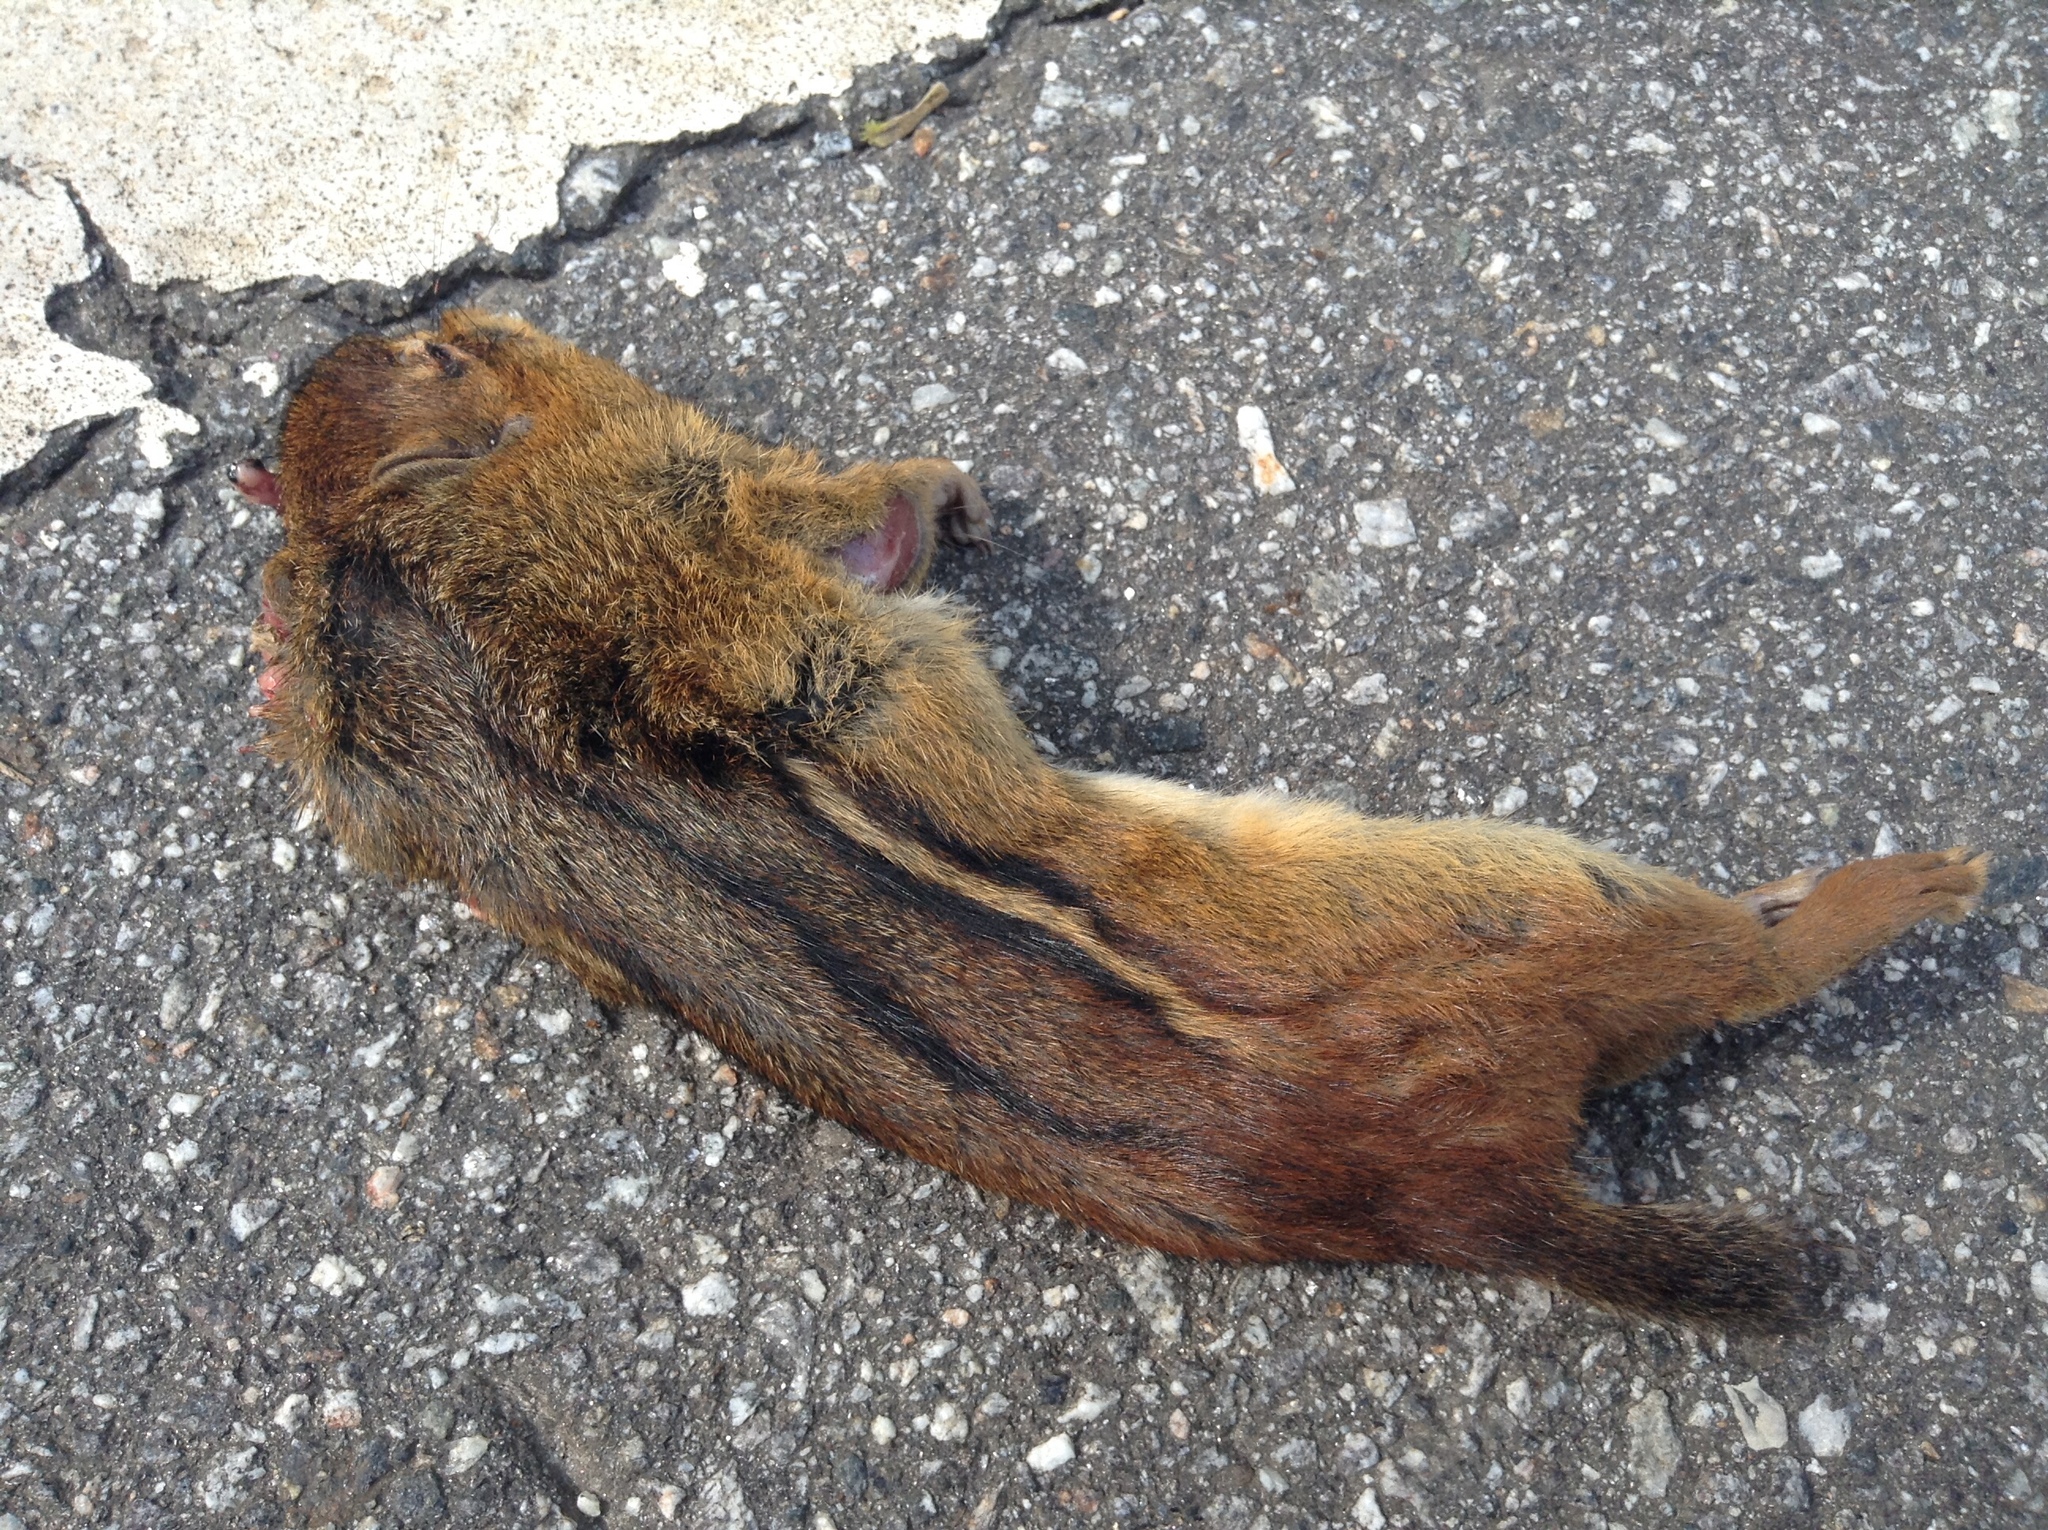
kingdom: Animalia
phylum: Chordata
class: Mammalia
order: Rodentia
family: Sciuridae
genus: Tamias
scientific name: Tamias striatus
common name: Eastern chipmunk
